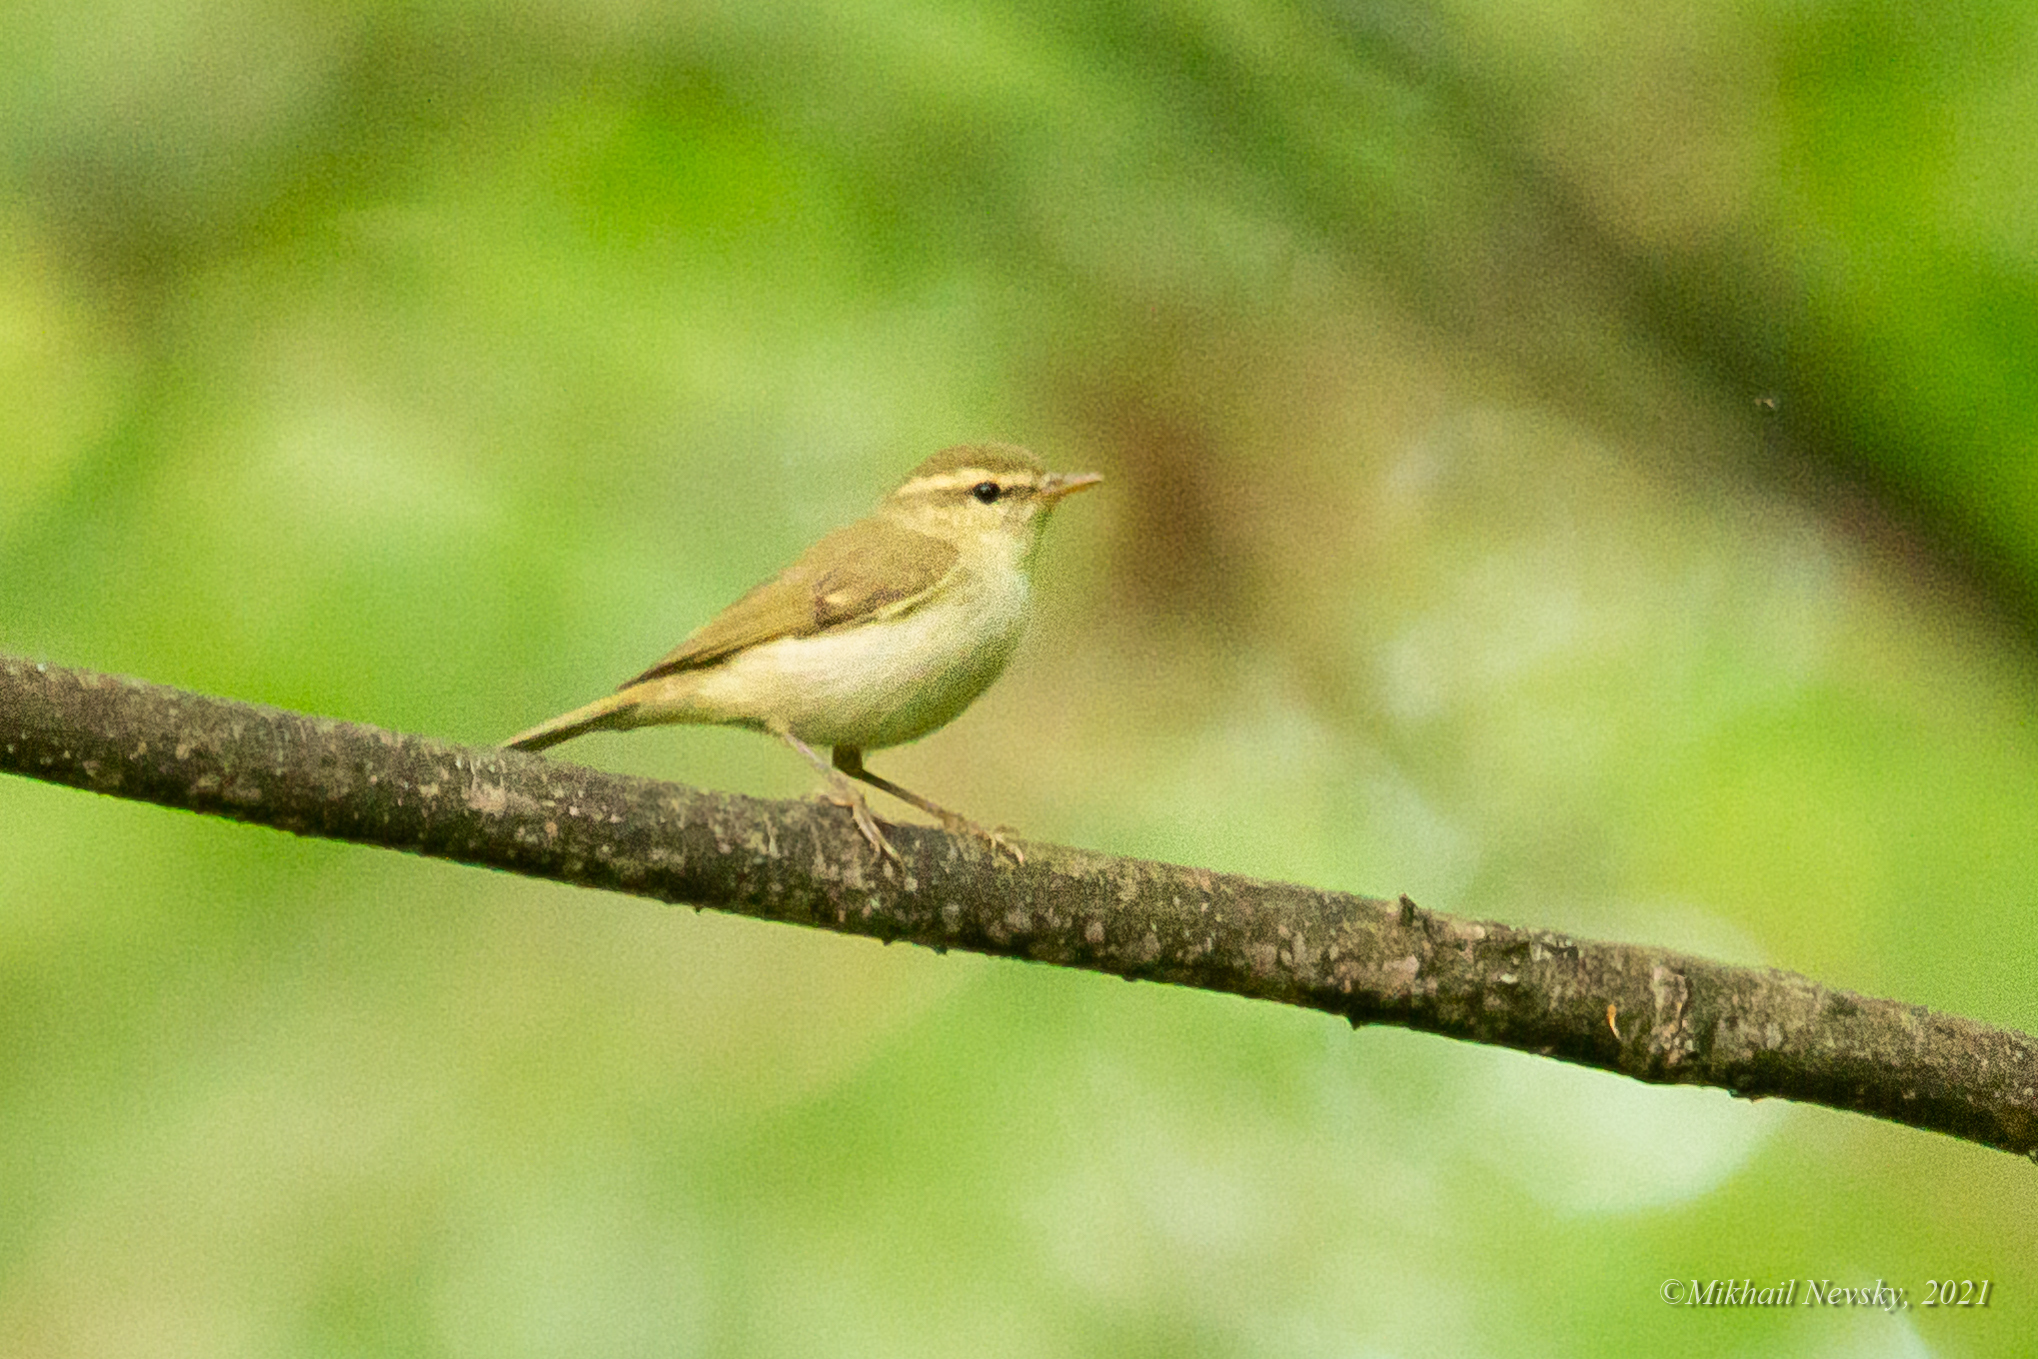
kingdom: Animalia
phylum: Chordata
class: Aves
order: Passeriformes
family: Phylloscopidae
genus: Phylloscopus
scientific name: Phylloscopus trochiloides
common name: Greenish warbler
